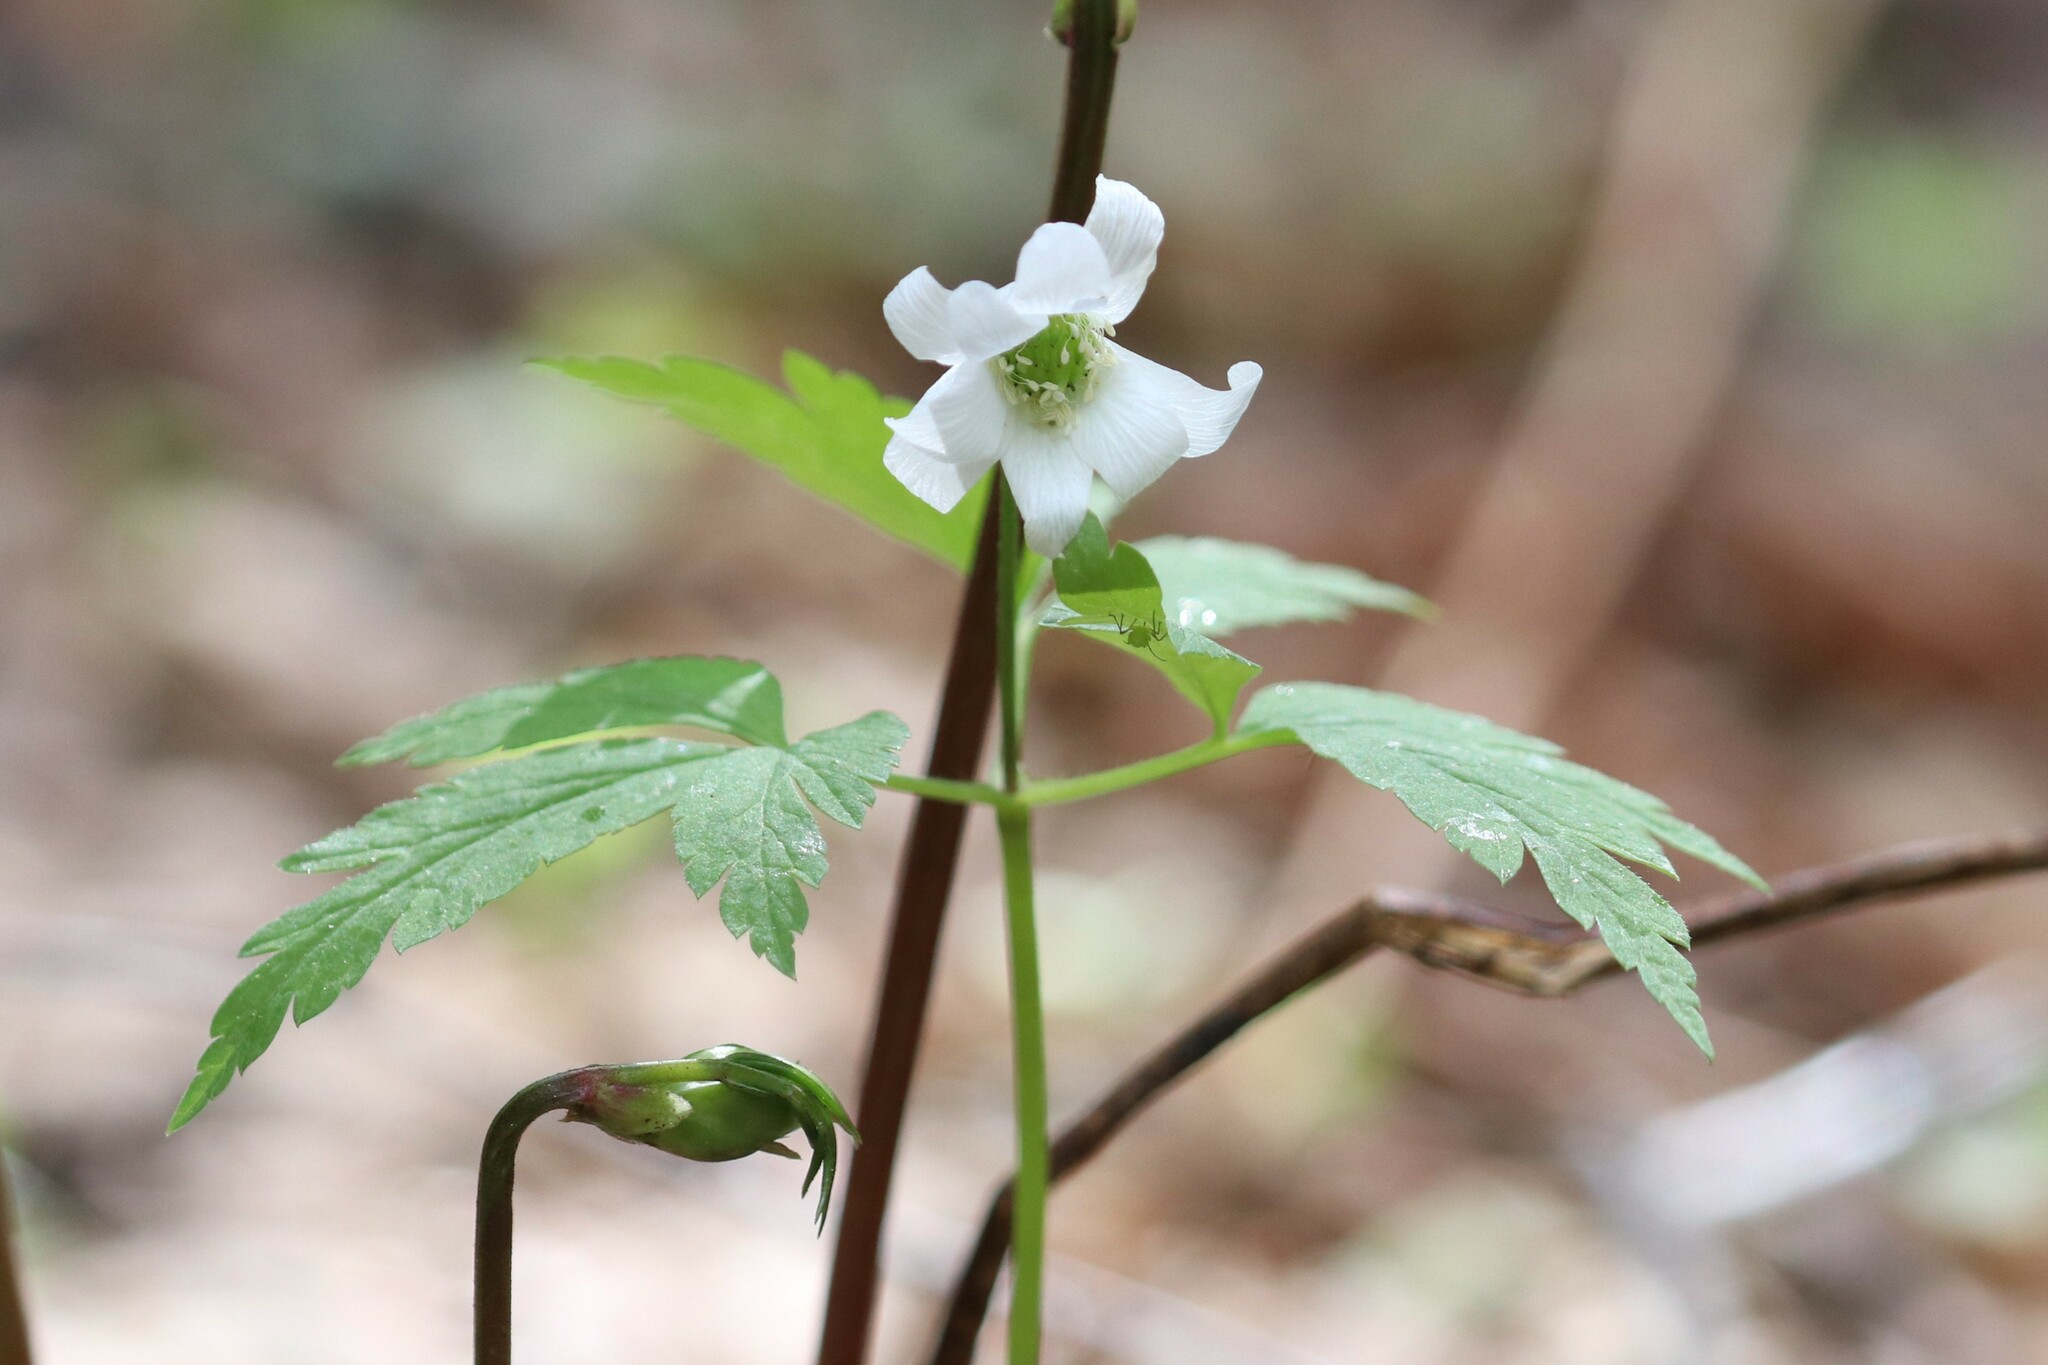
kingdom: Plantae
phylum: Tracheophyta
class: Magnoliopsida
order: Ranunculales
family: Ranunculaceae
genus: Anemone
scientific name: Anemone altaica
